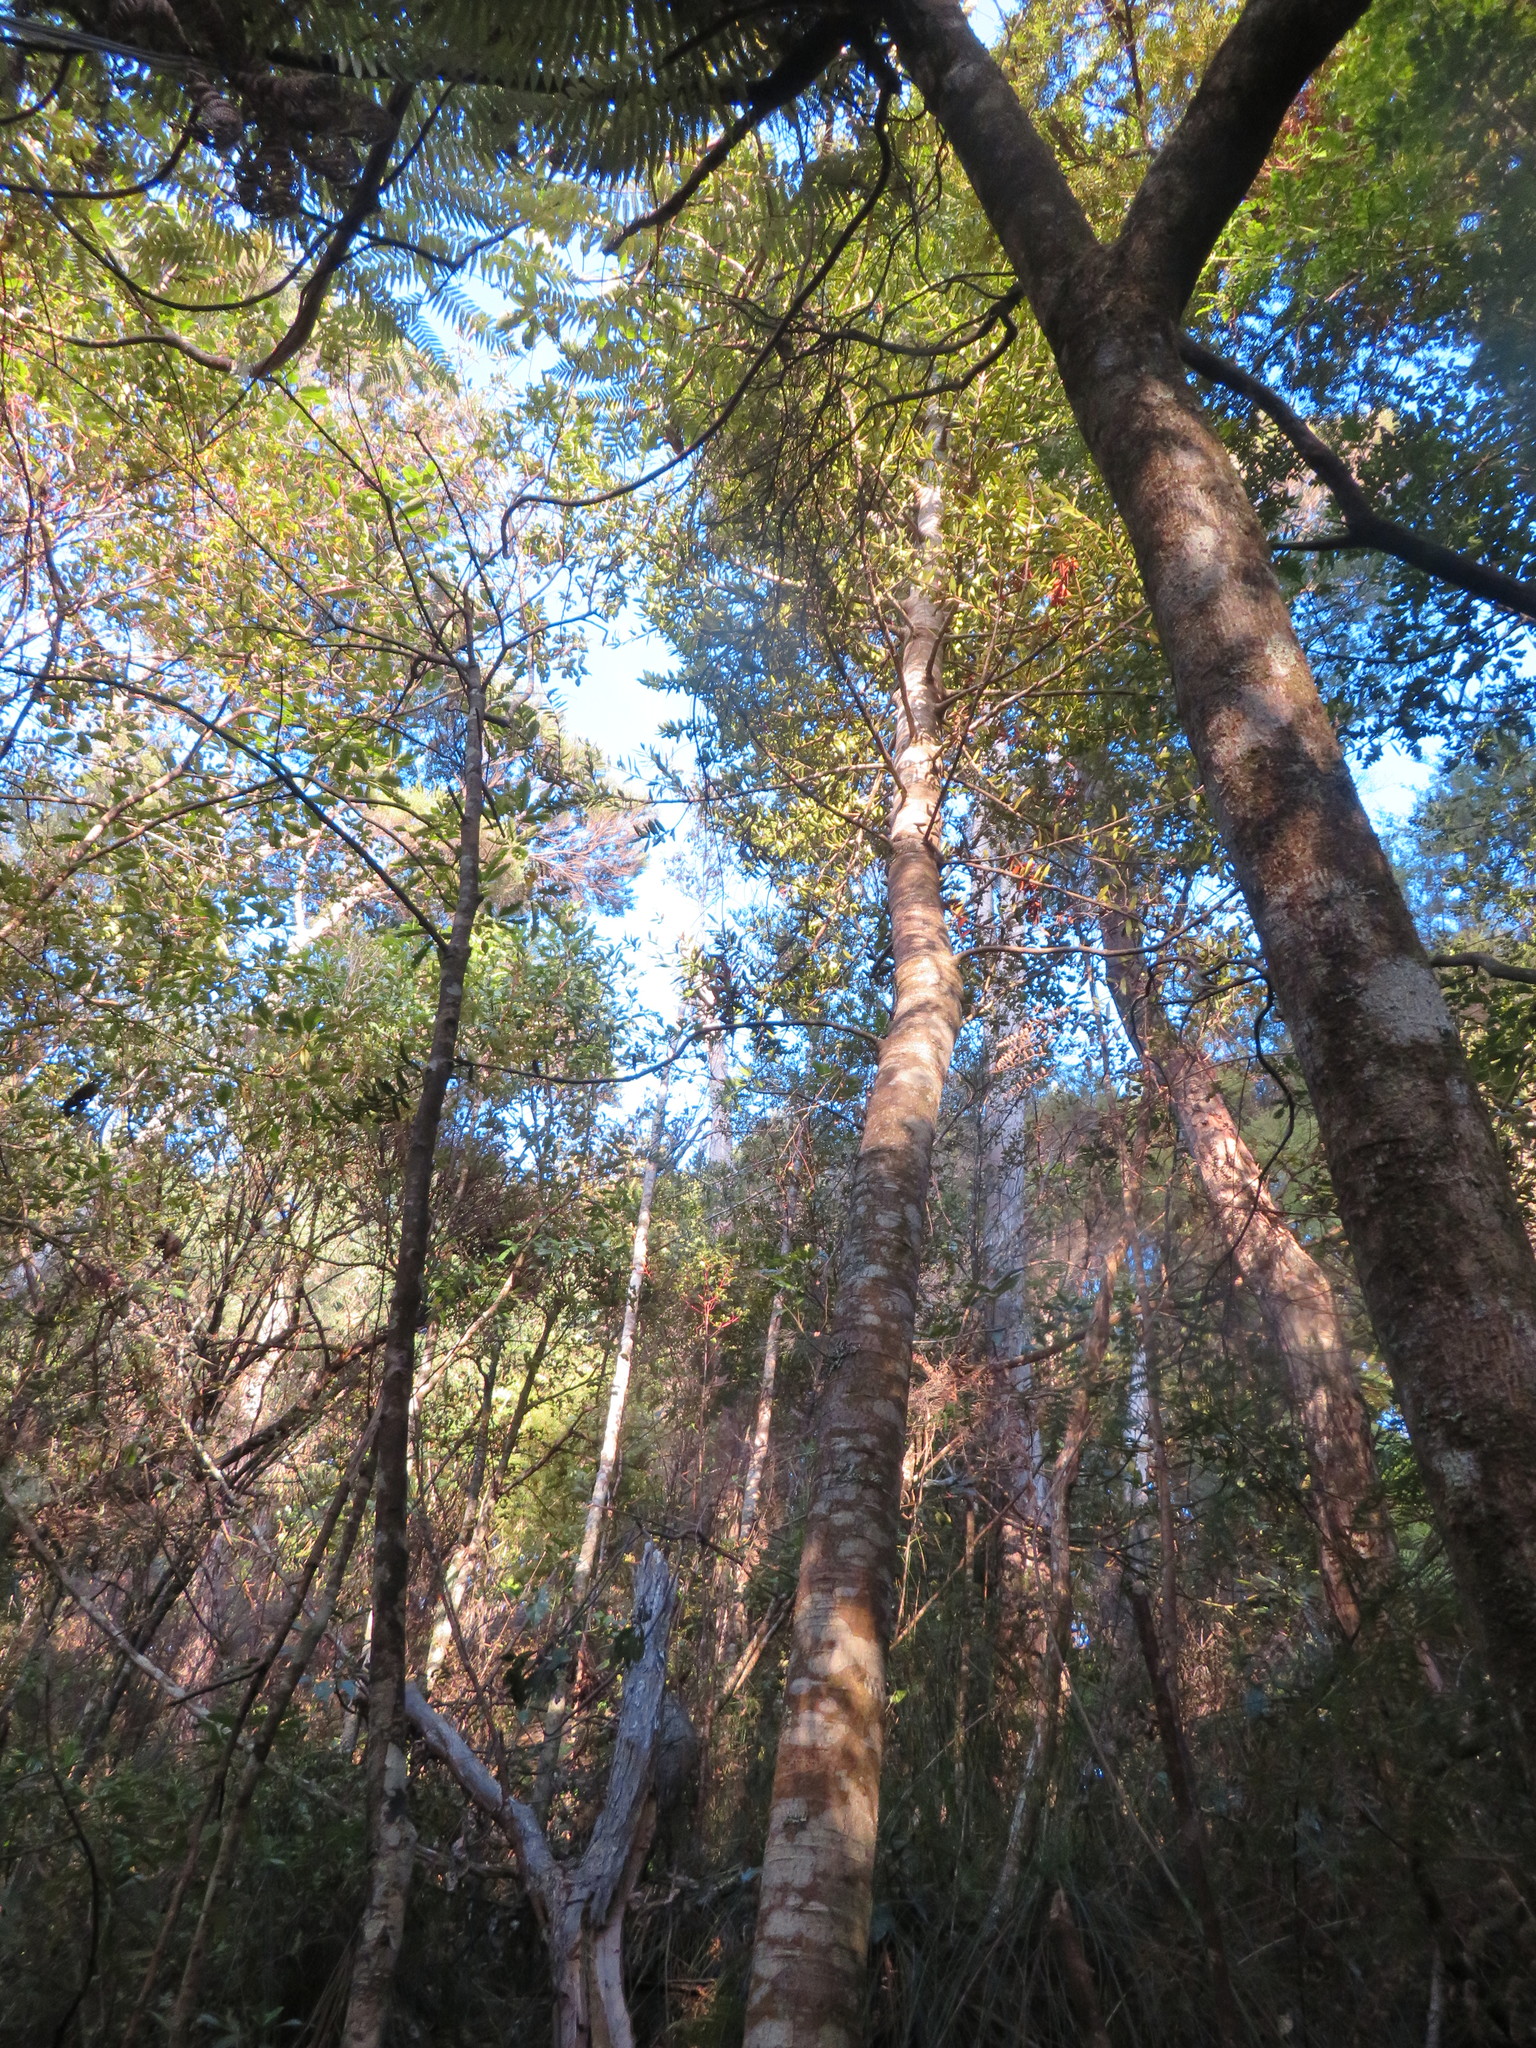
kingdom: Plantae
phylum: Tracheophyta
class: Pinopsida
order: Pinales
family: Araucariaceae
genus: Agathis
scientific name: Agathis australis
